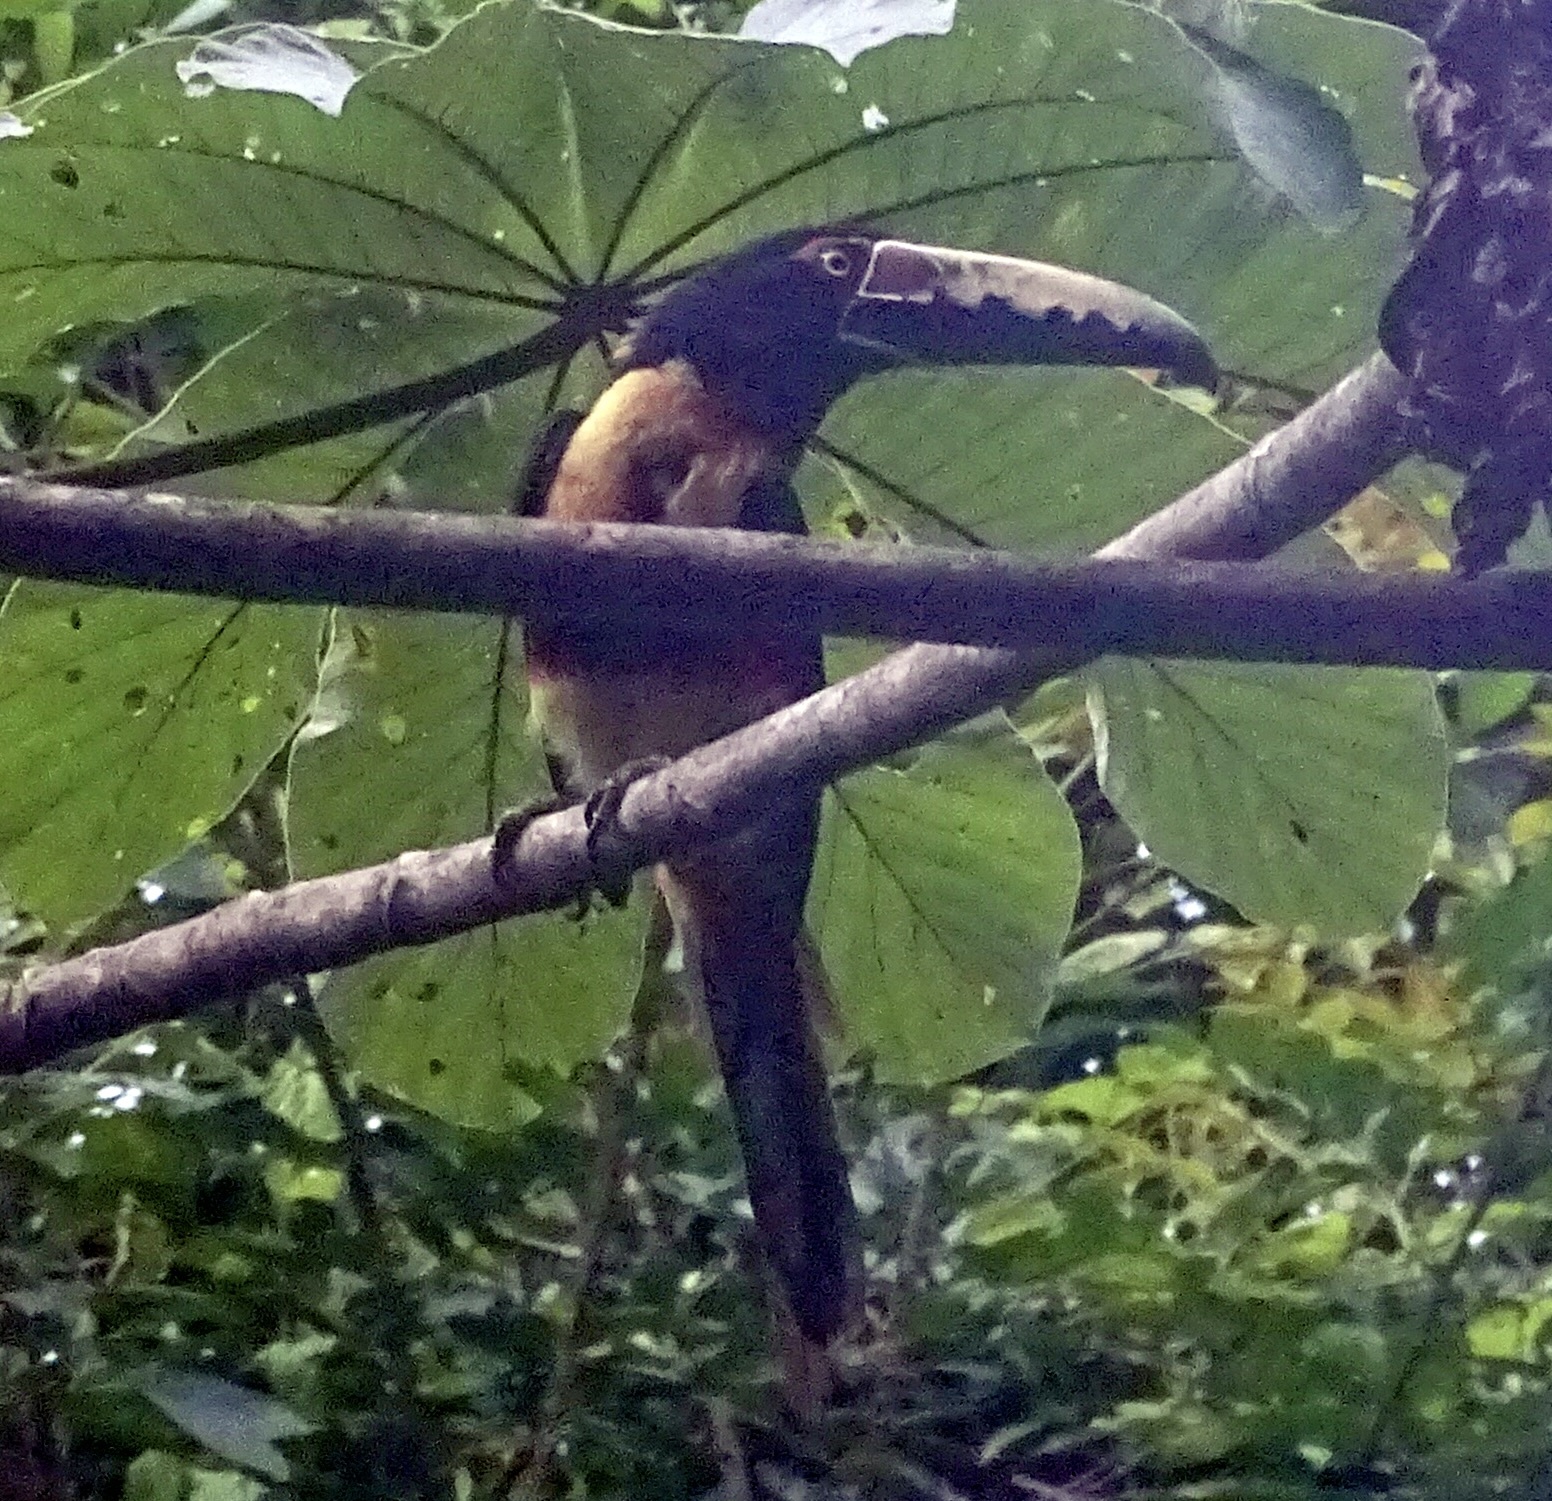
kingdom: Animalia
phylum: Chordata
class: Aves
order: Piciformes
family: Ramphastidae
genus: Pteroglossus
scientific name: Pteroglossus torquatus
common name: Collared aracari
